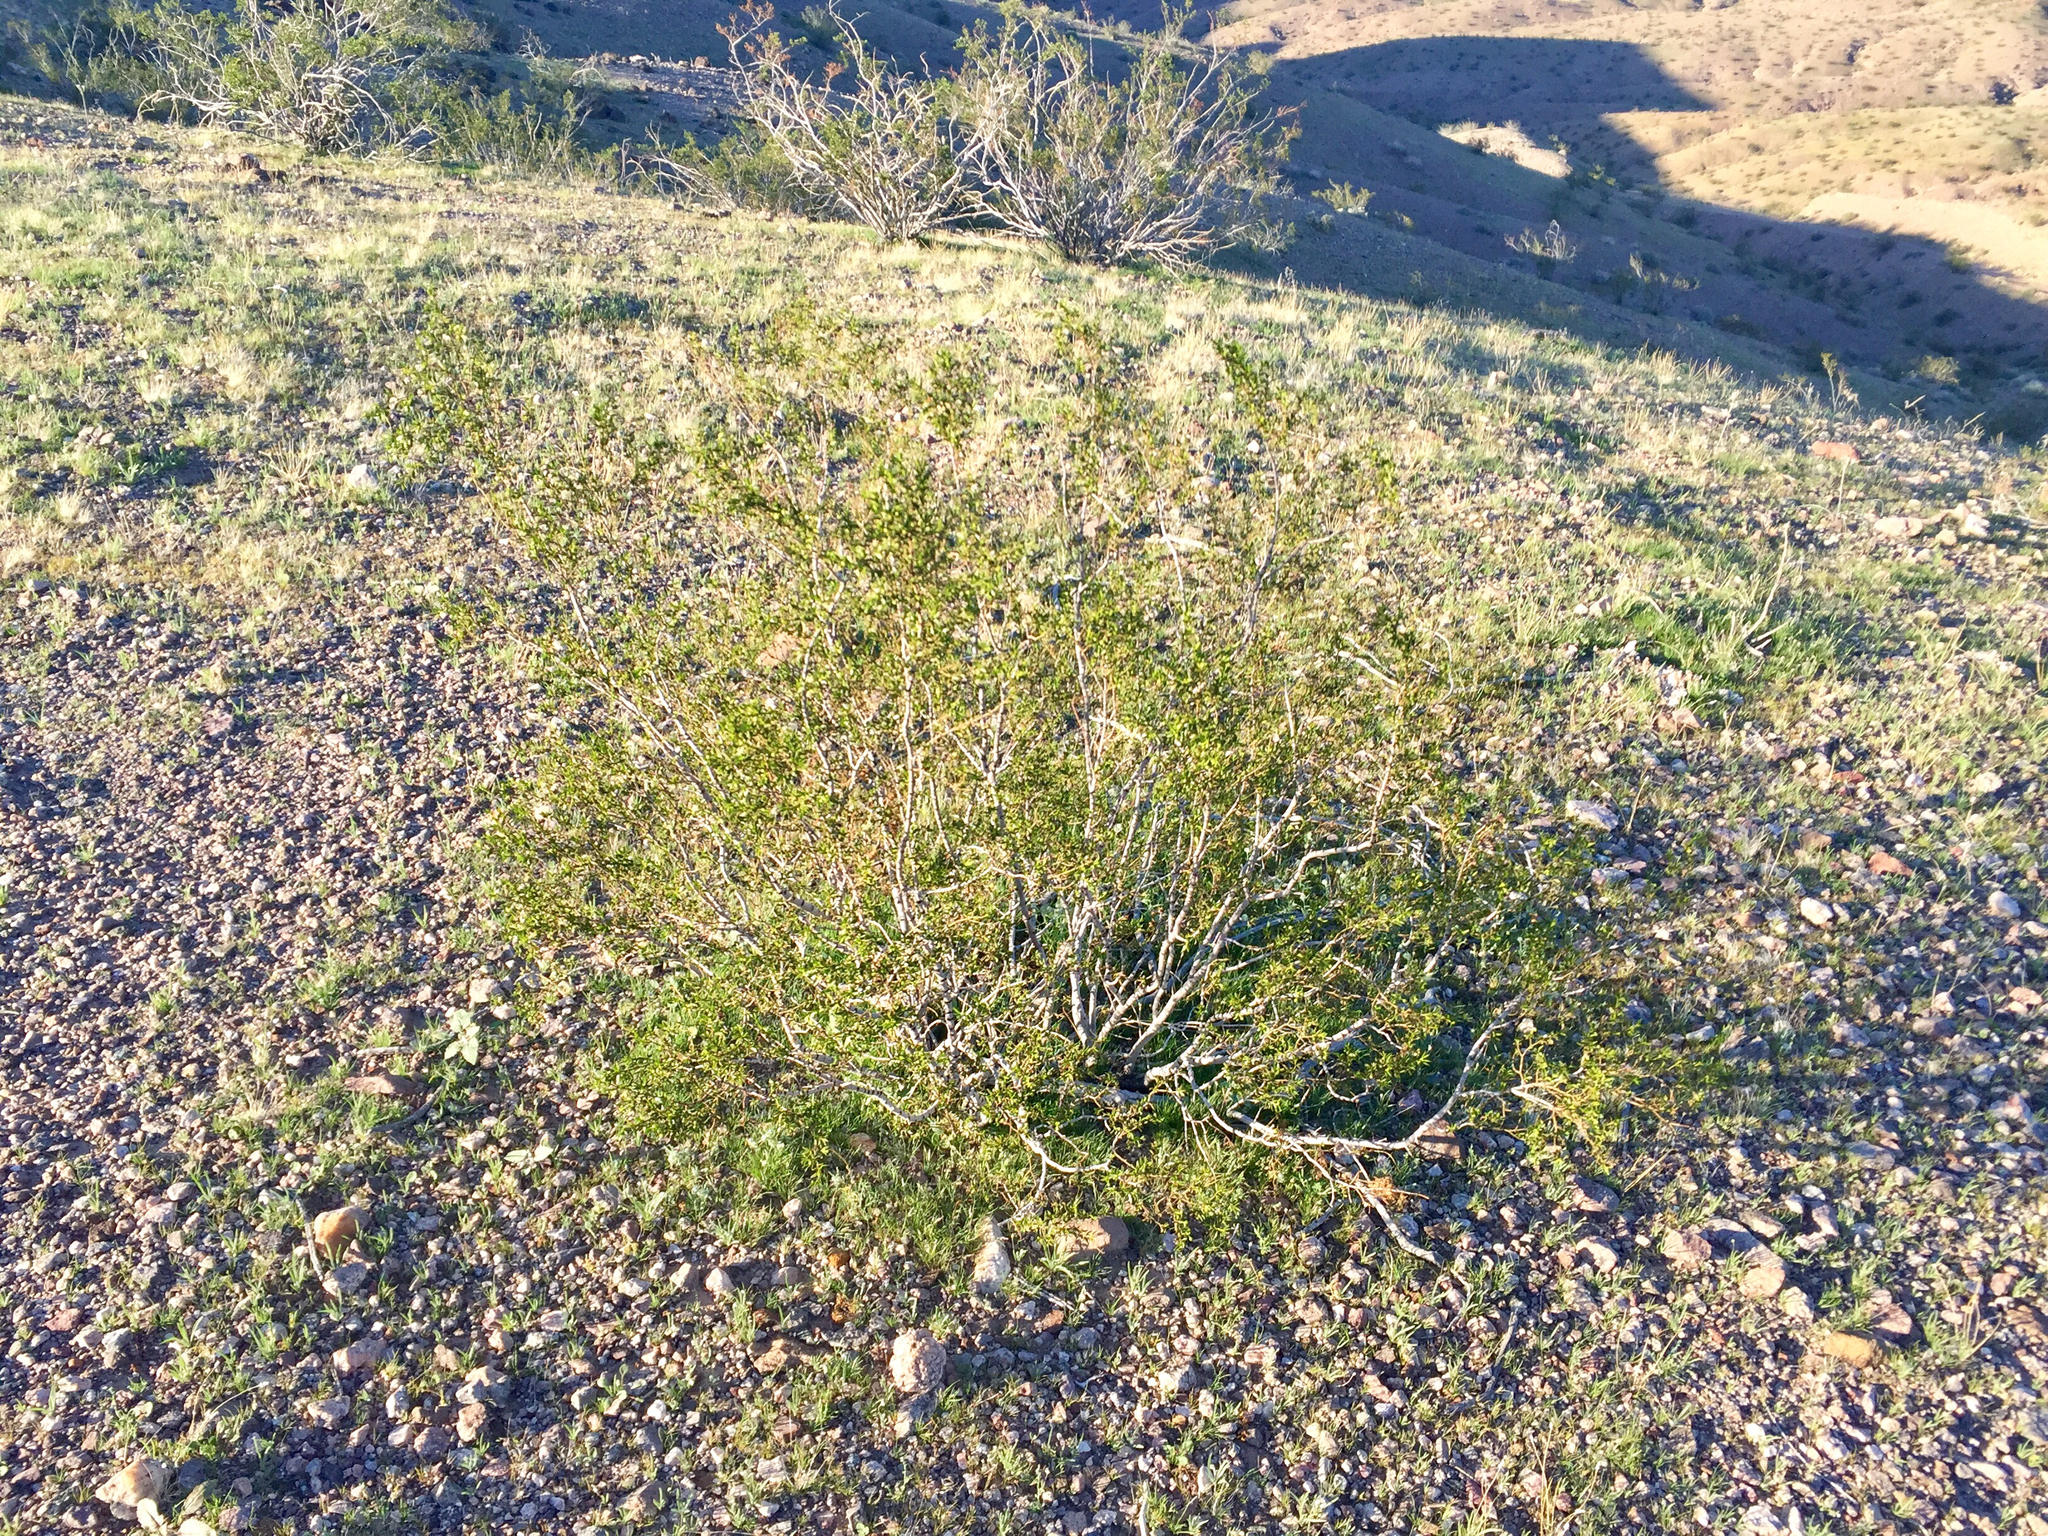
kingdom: Plantae
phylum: Tracheophyta
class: Magnoliopsida
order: Zygophyllales
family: Zygophyllaceae
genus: Larrea
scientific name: Larrea tridentata
